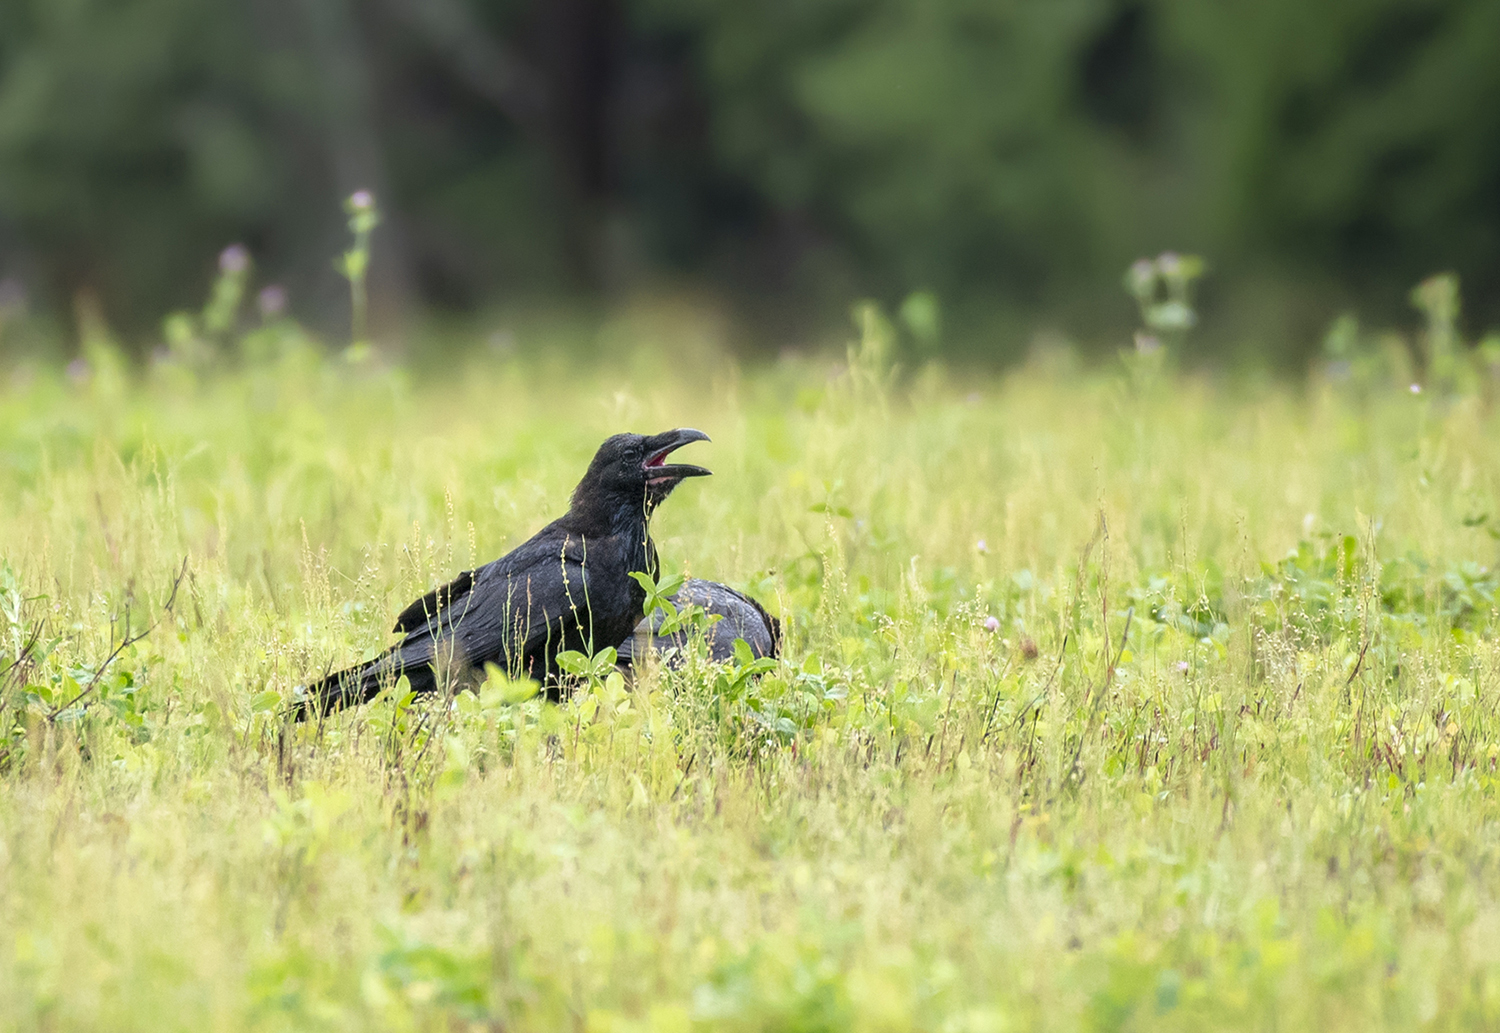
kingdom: Animalia
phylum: Chordata
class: Aves
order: Passeriformes
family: Corvidae
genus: Corvus
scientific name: Corvus corax
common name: Common raven
